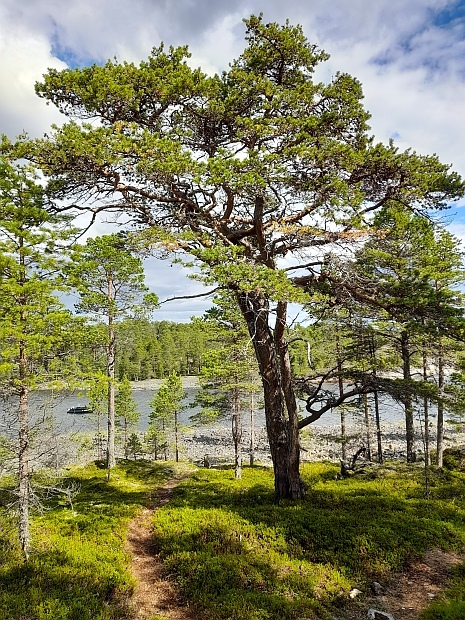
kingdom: Plantae
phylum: Tracheophyta
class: Pinopsida
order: Pinales
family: Pinaceae
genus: Pinus
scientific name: Pinus sylvestris
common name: Scots pine
